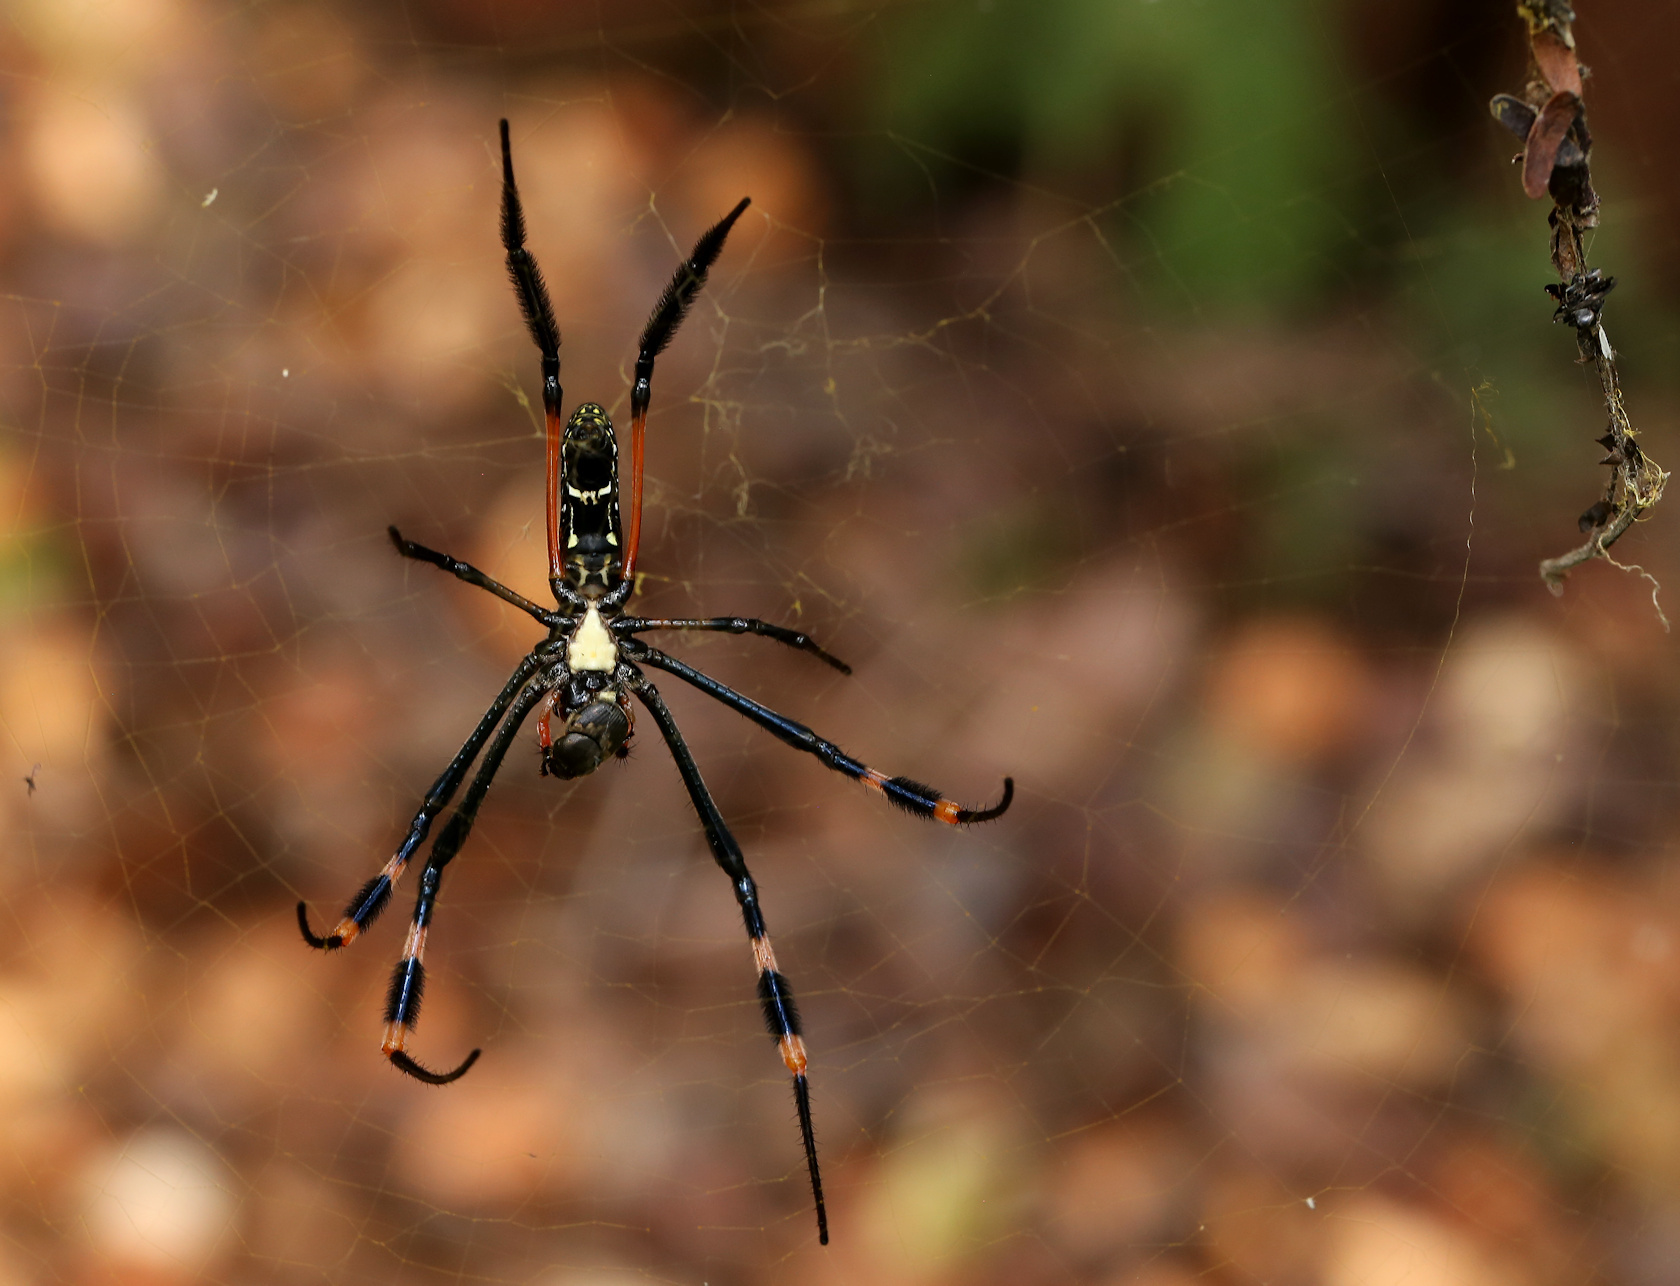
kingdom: Animalia
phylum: Arthropoda
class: Arachnida
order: Araneae
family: Araneidae
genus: Trichonephila
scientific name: Trichonephila senegalensis
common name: Banded golden orb weaver
